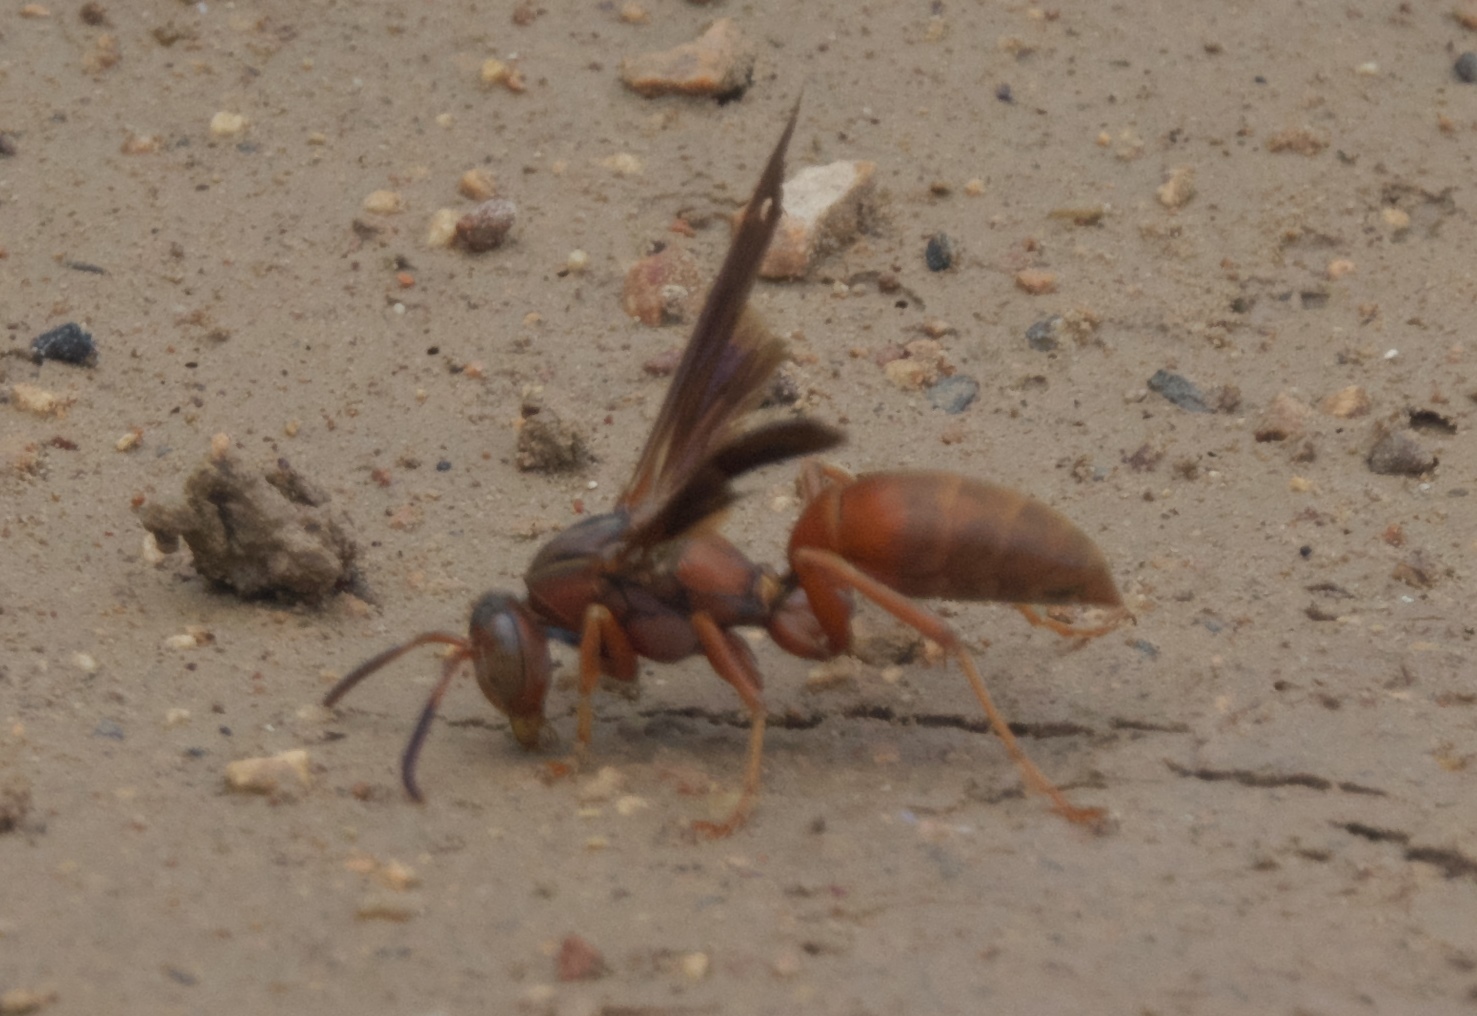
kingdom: Animalia
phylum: Arthropoda
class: Insecta
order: Hymenoptera
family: Eumenidae
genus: Polistes
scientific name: Polistes carolina
